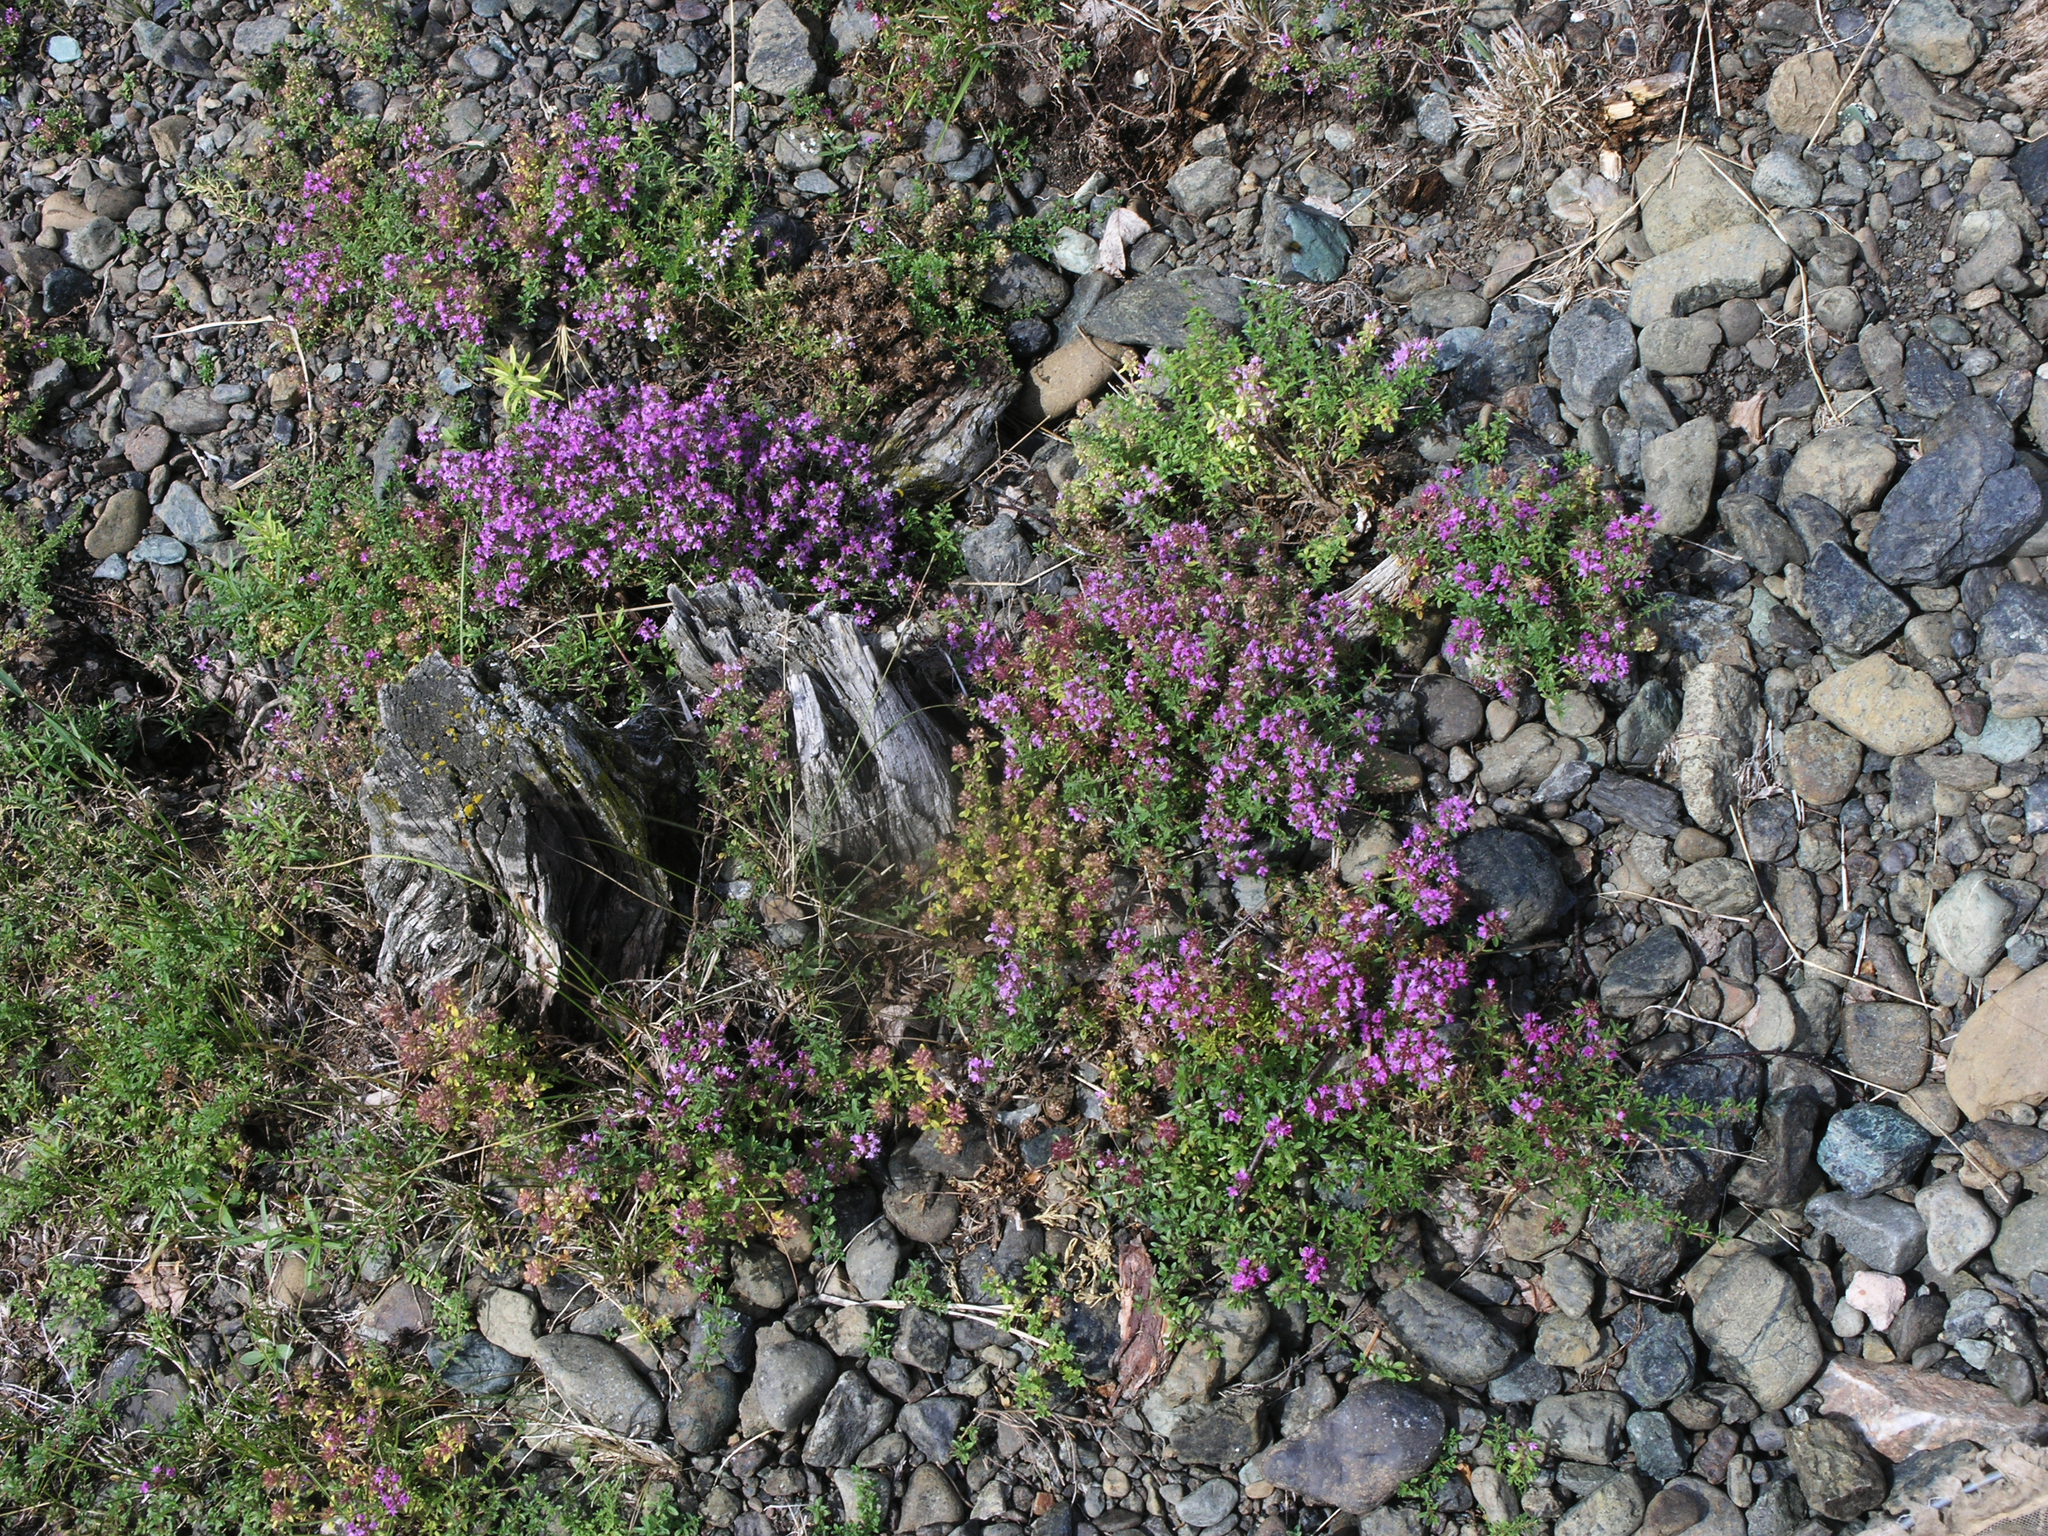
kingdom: Plantae
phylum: Tracheophyta
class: Magnoliopsida
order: Lamiales
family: Lamiaceae
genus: Thymus
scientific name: Thymus guberlinensis
